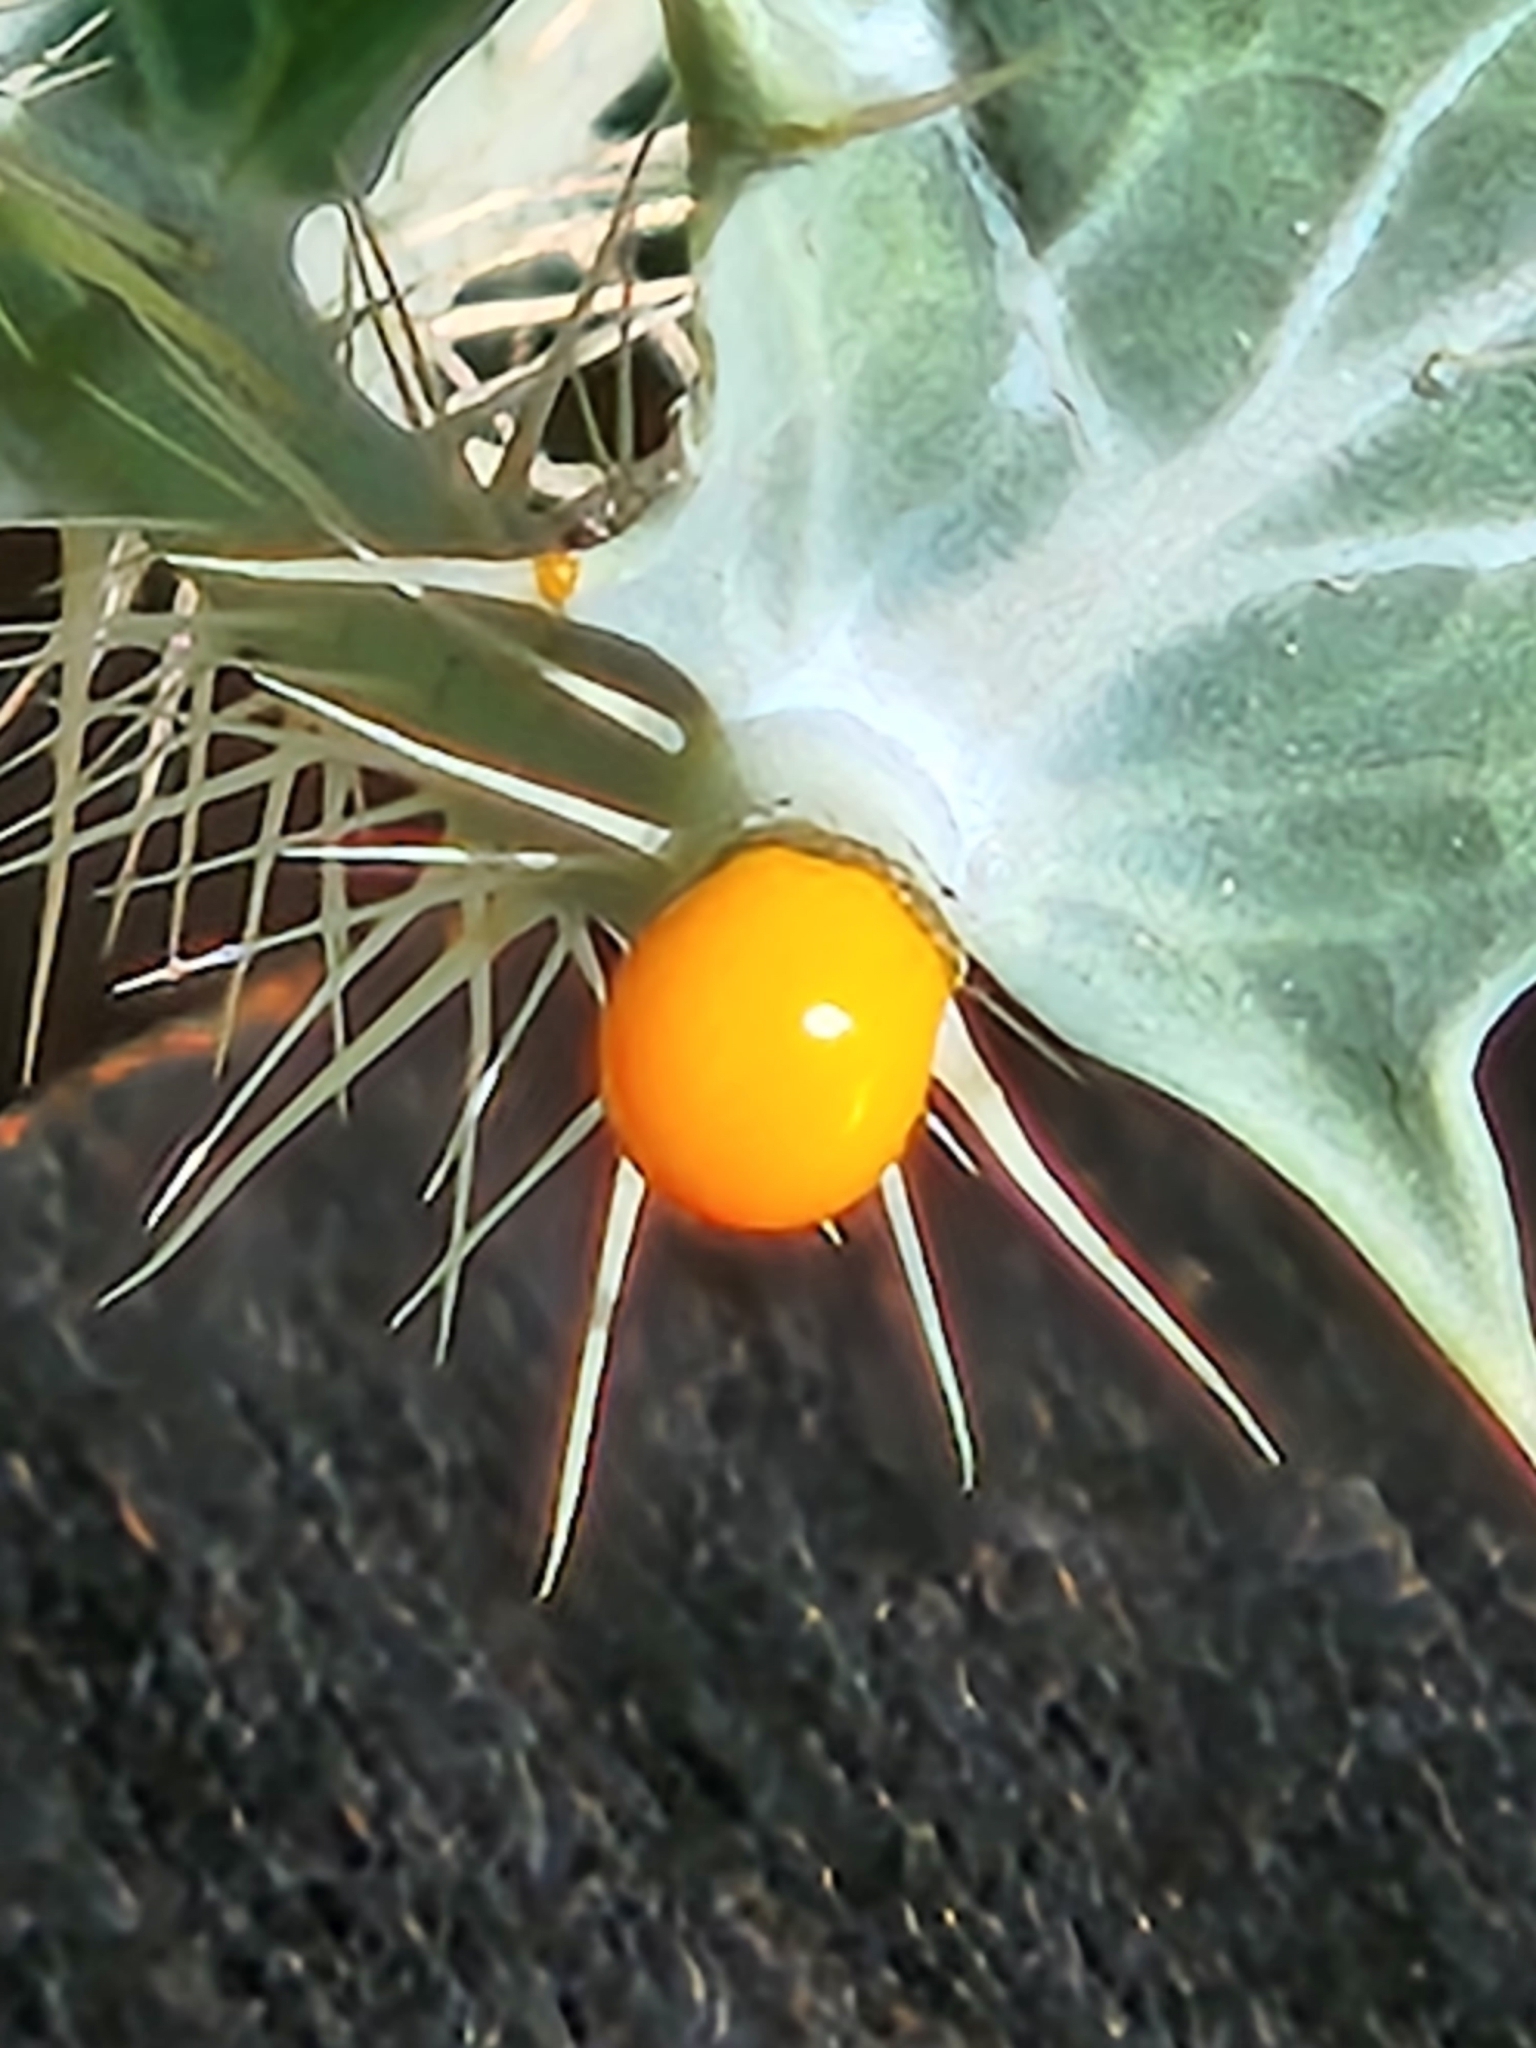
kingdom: Plantae
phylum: Tracheophyta
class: Magnoliopsida
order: Ranunculales
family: Papaveraceae
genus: Argemone
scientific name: Argemone aurantiaca
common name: Texas prickly-poppy
